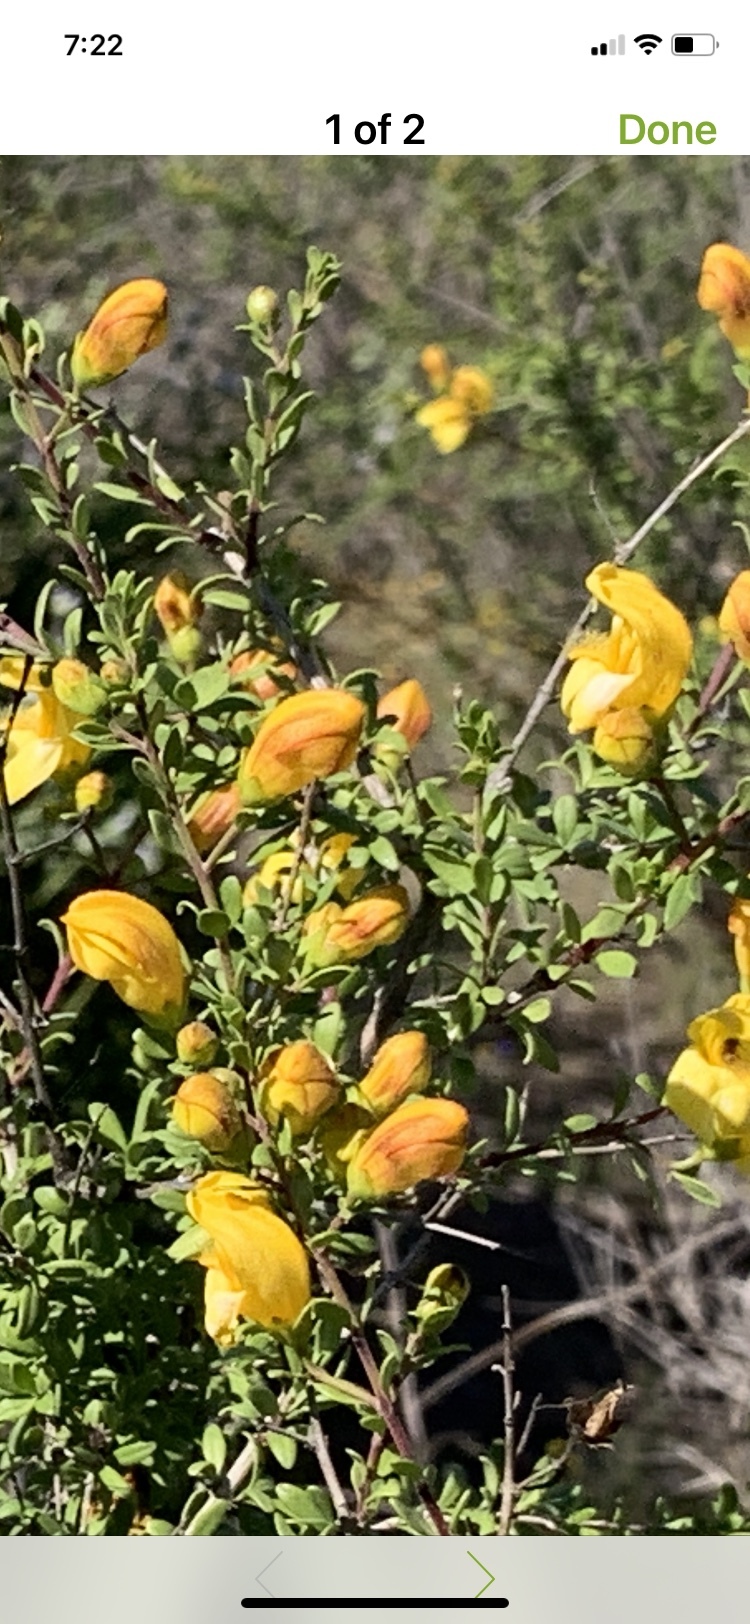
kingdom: Plantae
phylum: Tracheophyta
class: Magnoliopsida
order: Lamiales
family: Plantaginaceae
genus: Keckiella
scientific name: Keckiella antirrhinoides
